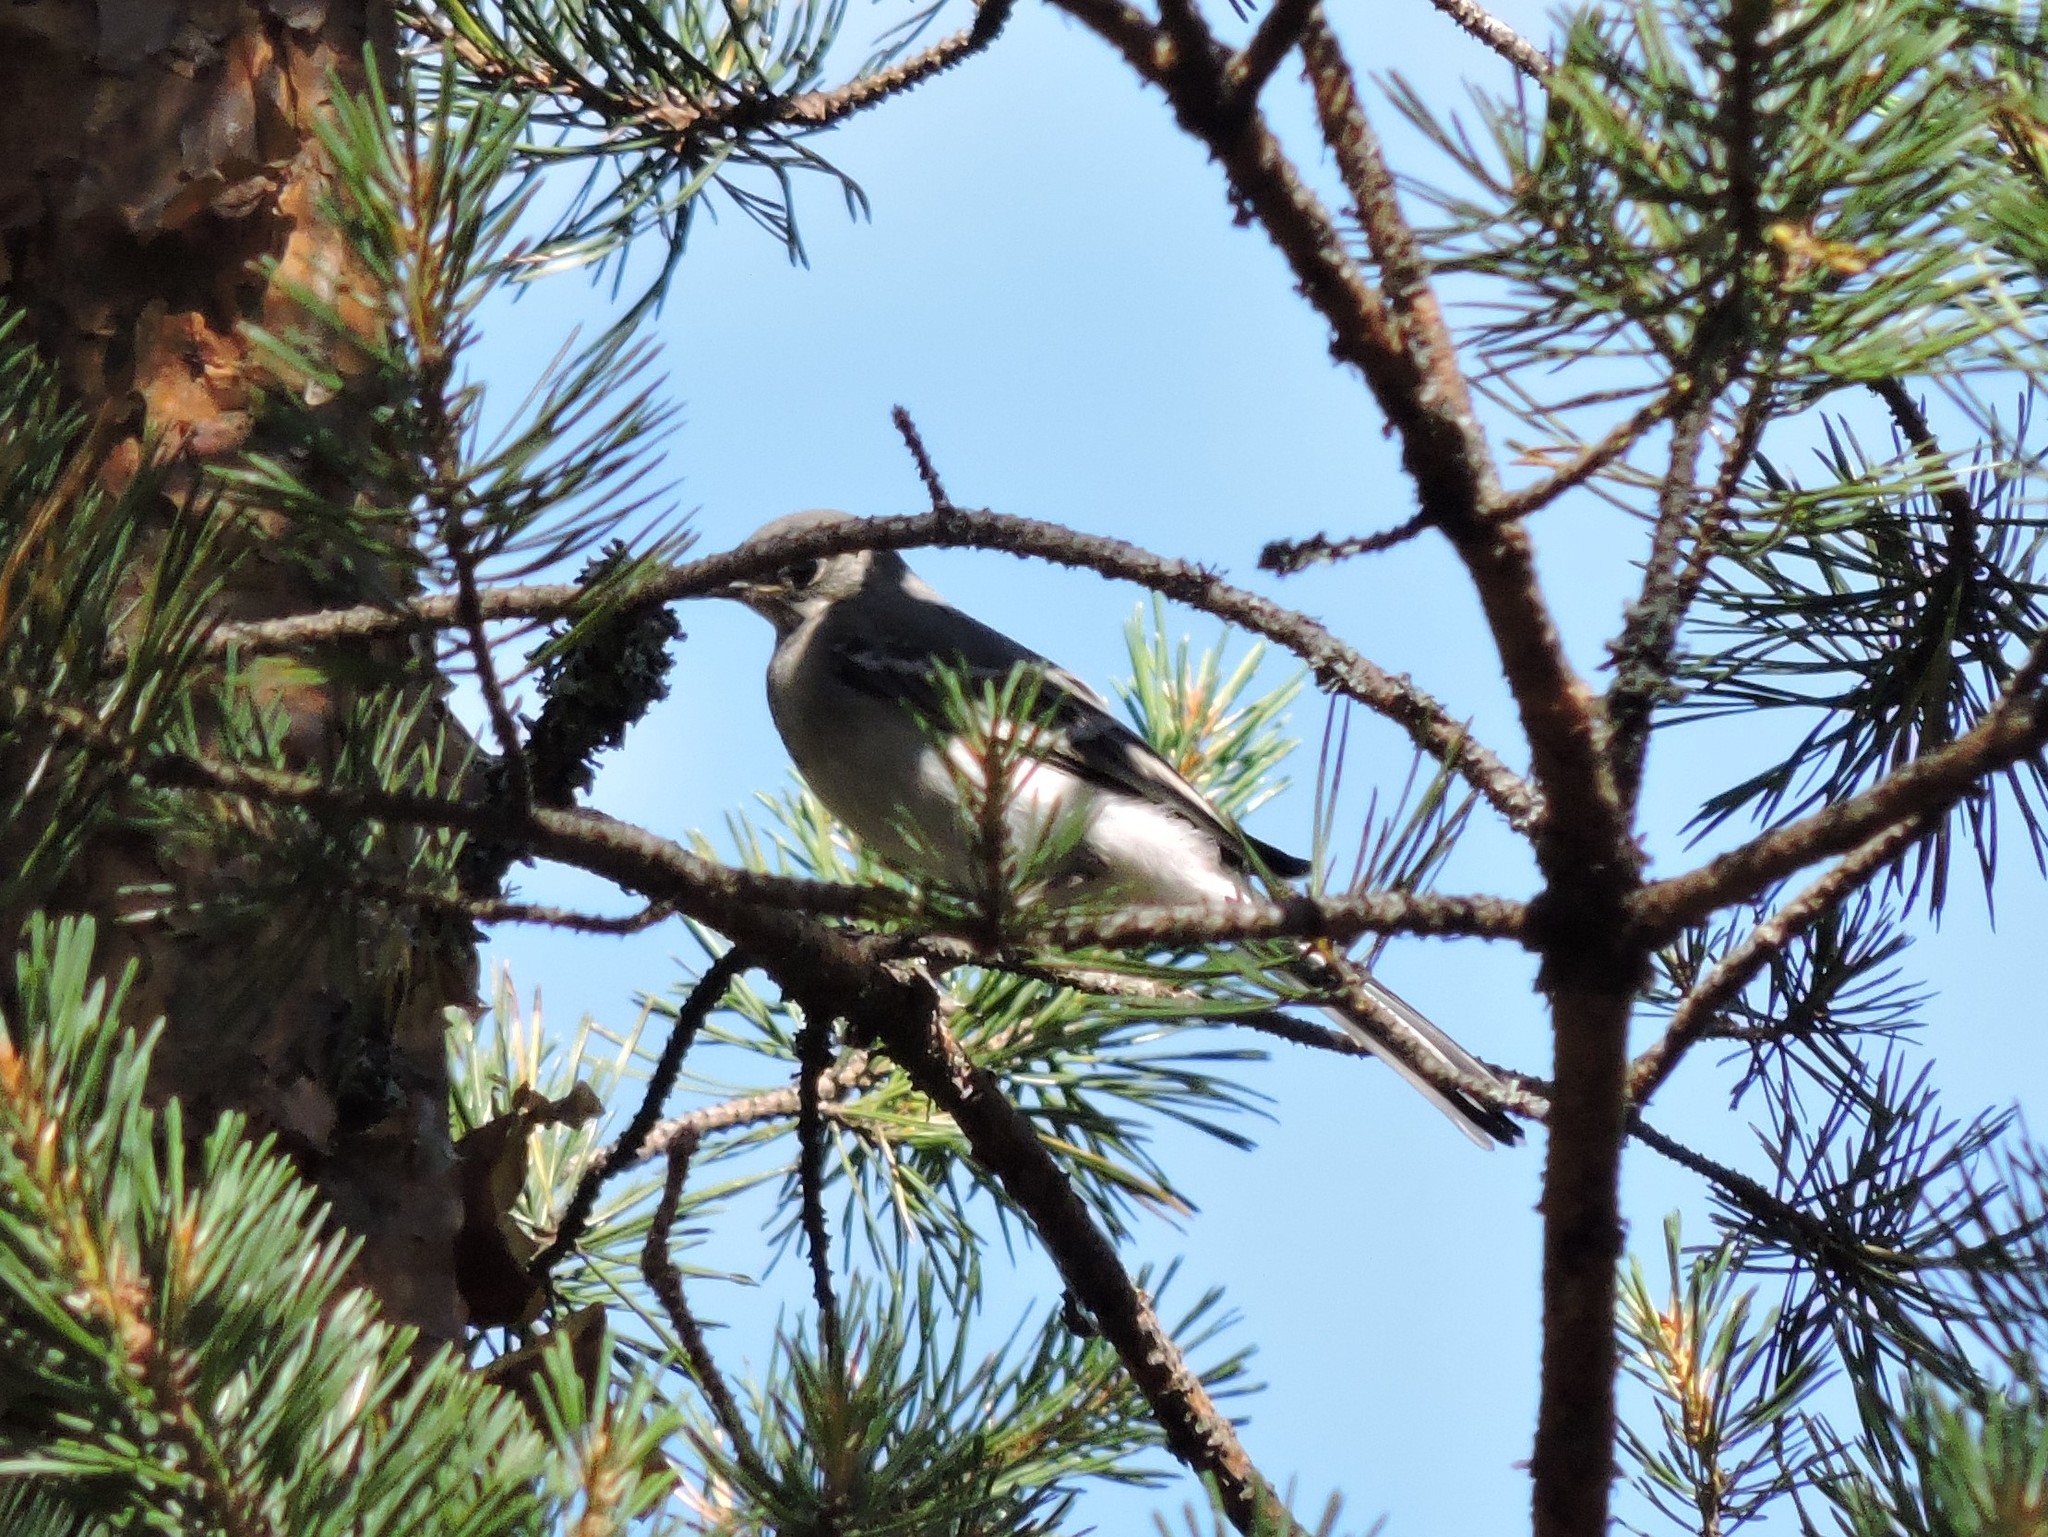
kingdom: Animalia
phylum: Chordata
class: Aves
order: Passeriformes
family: Motacillidae
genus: Motacilla
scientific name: Motacilla alba
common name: White wagtail
